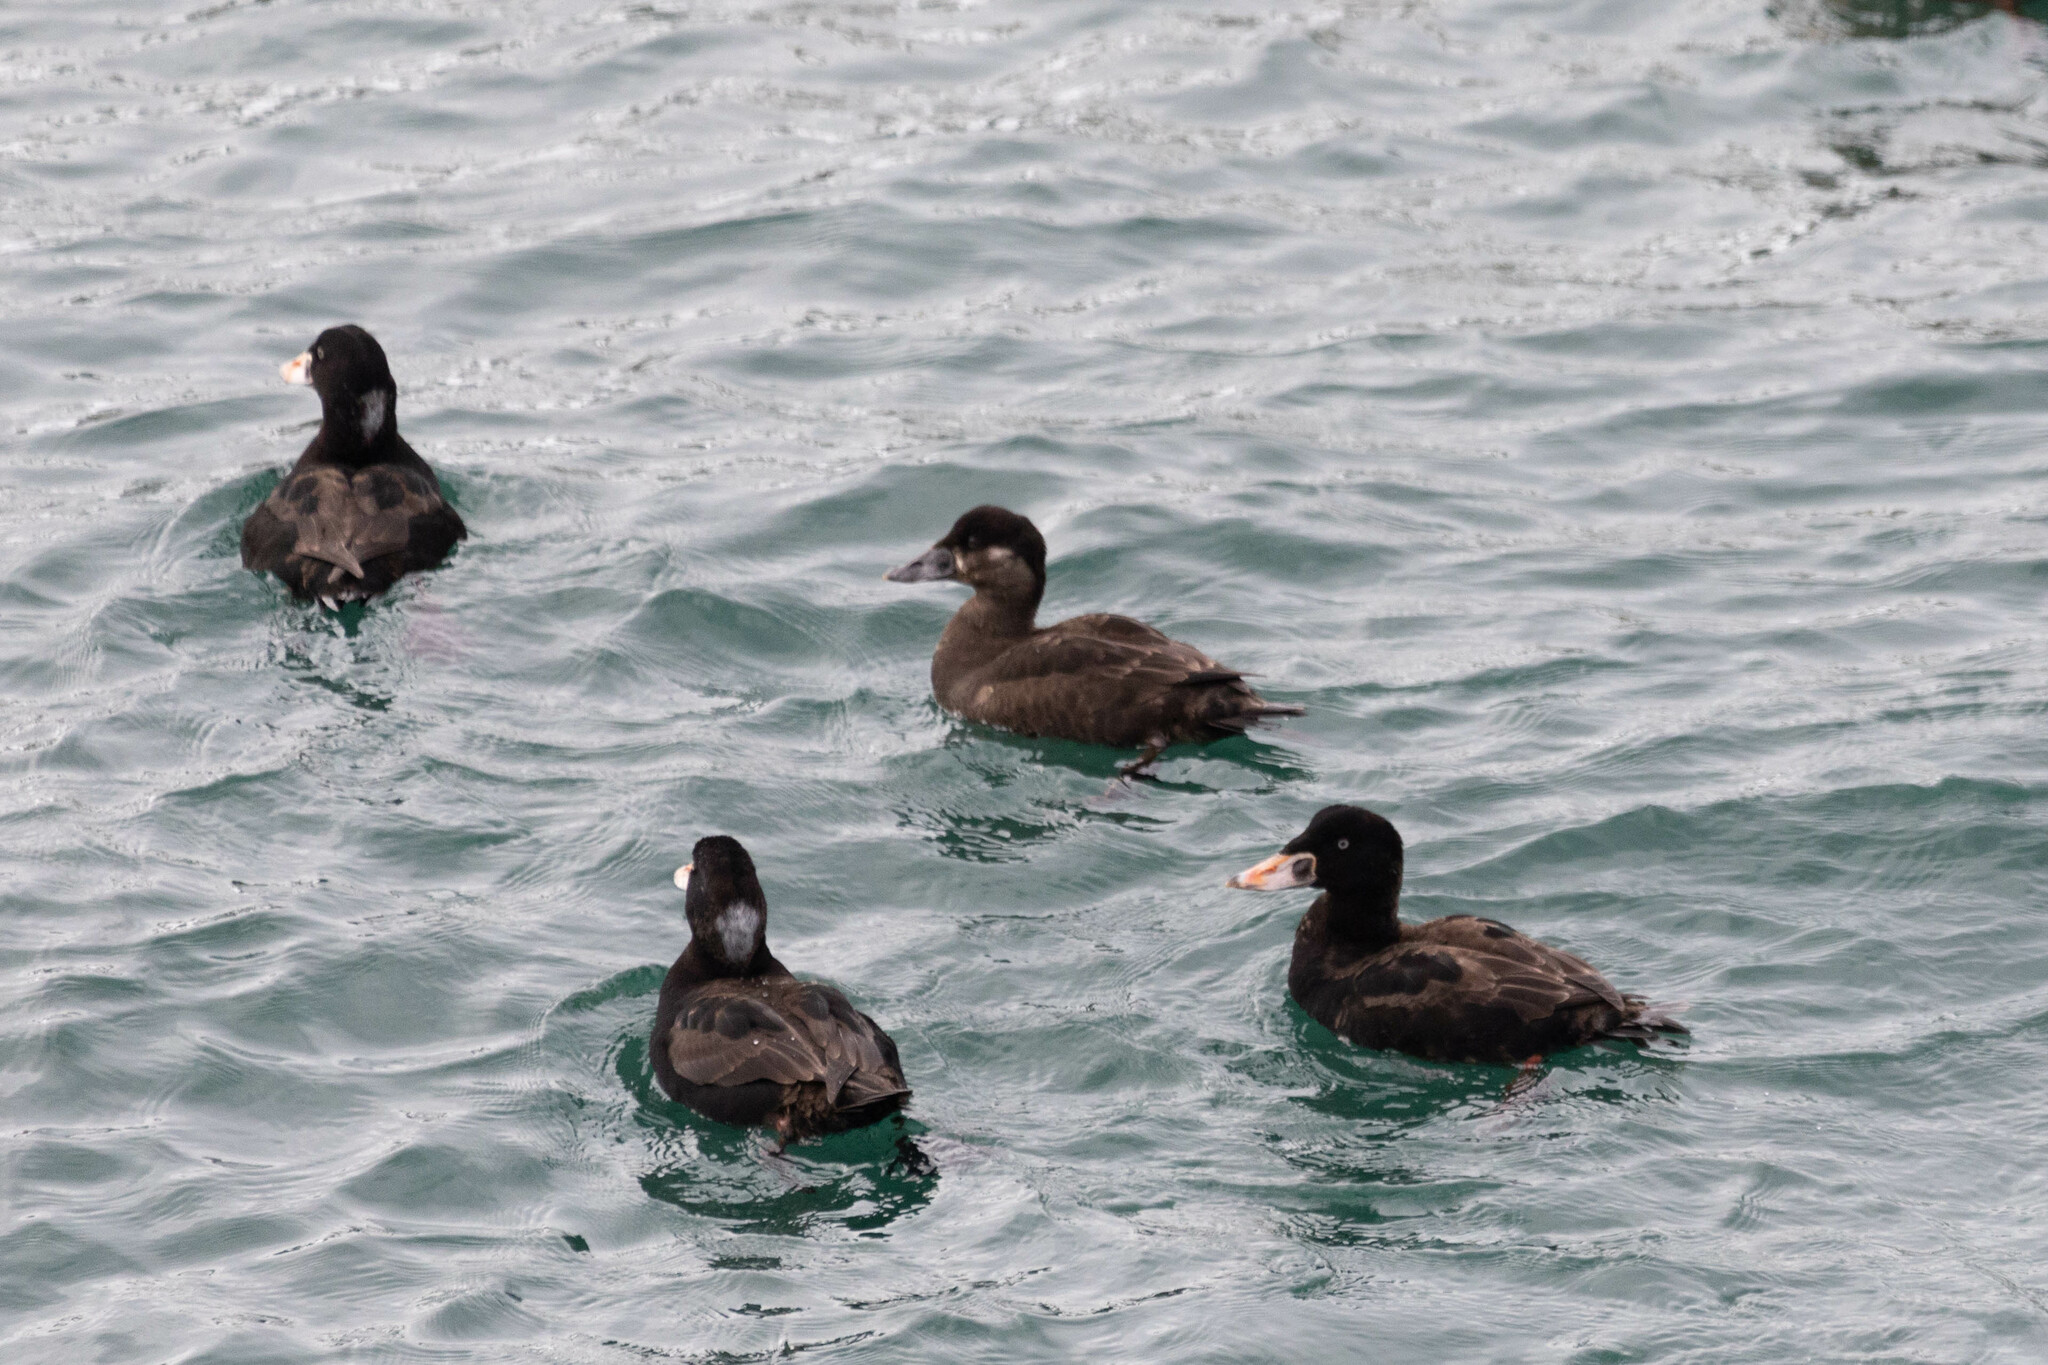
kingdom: Animalia
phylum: Chordata
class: Aves
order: Anseriformes
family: Anatidae
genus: Melanitta
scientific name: Melanitta perspicillata
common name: Surf scoter
